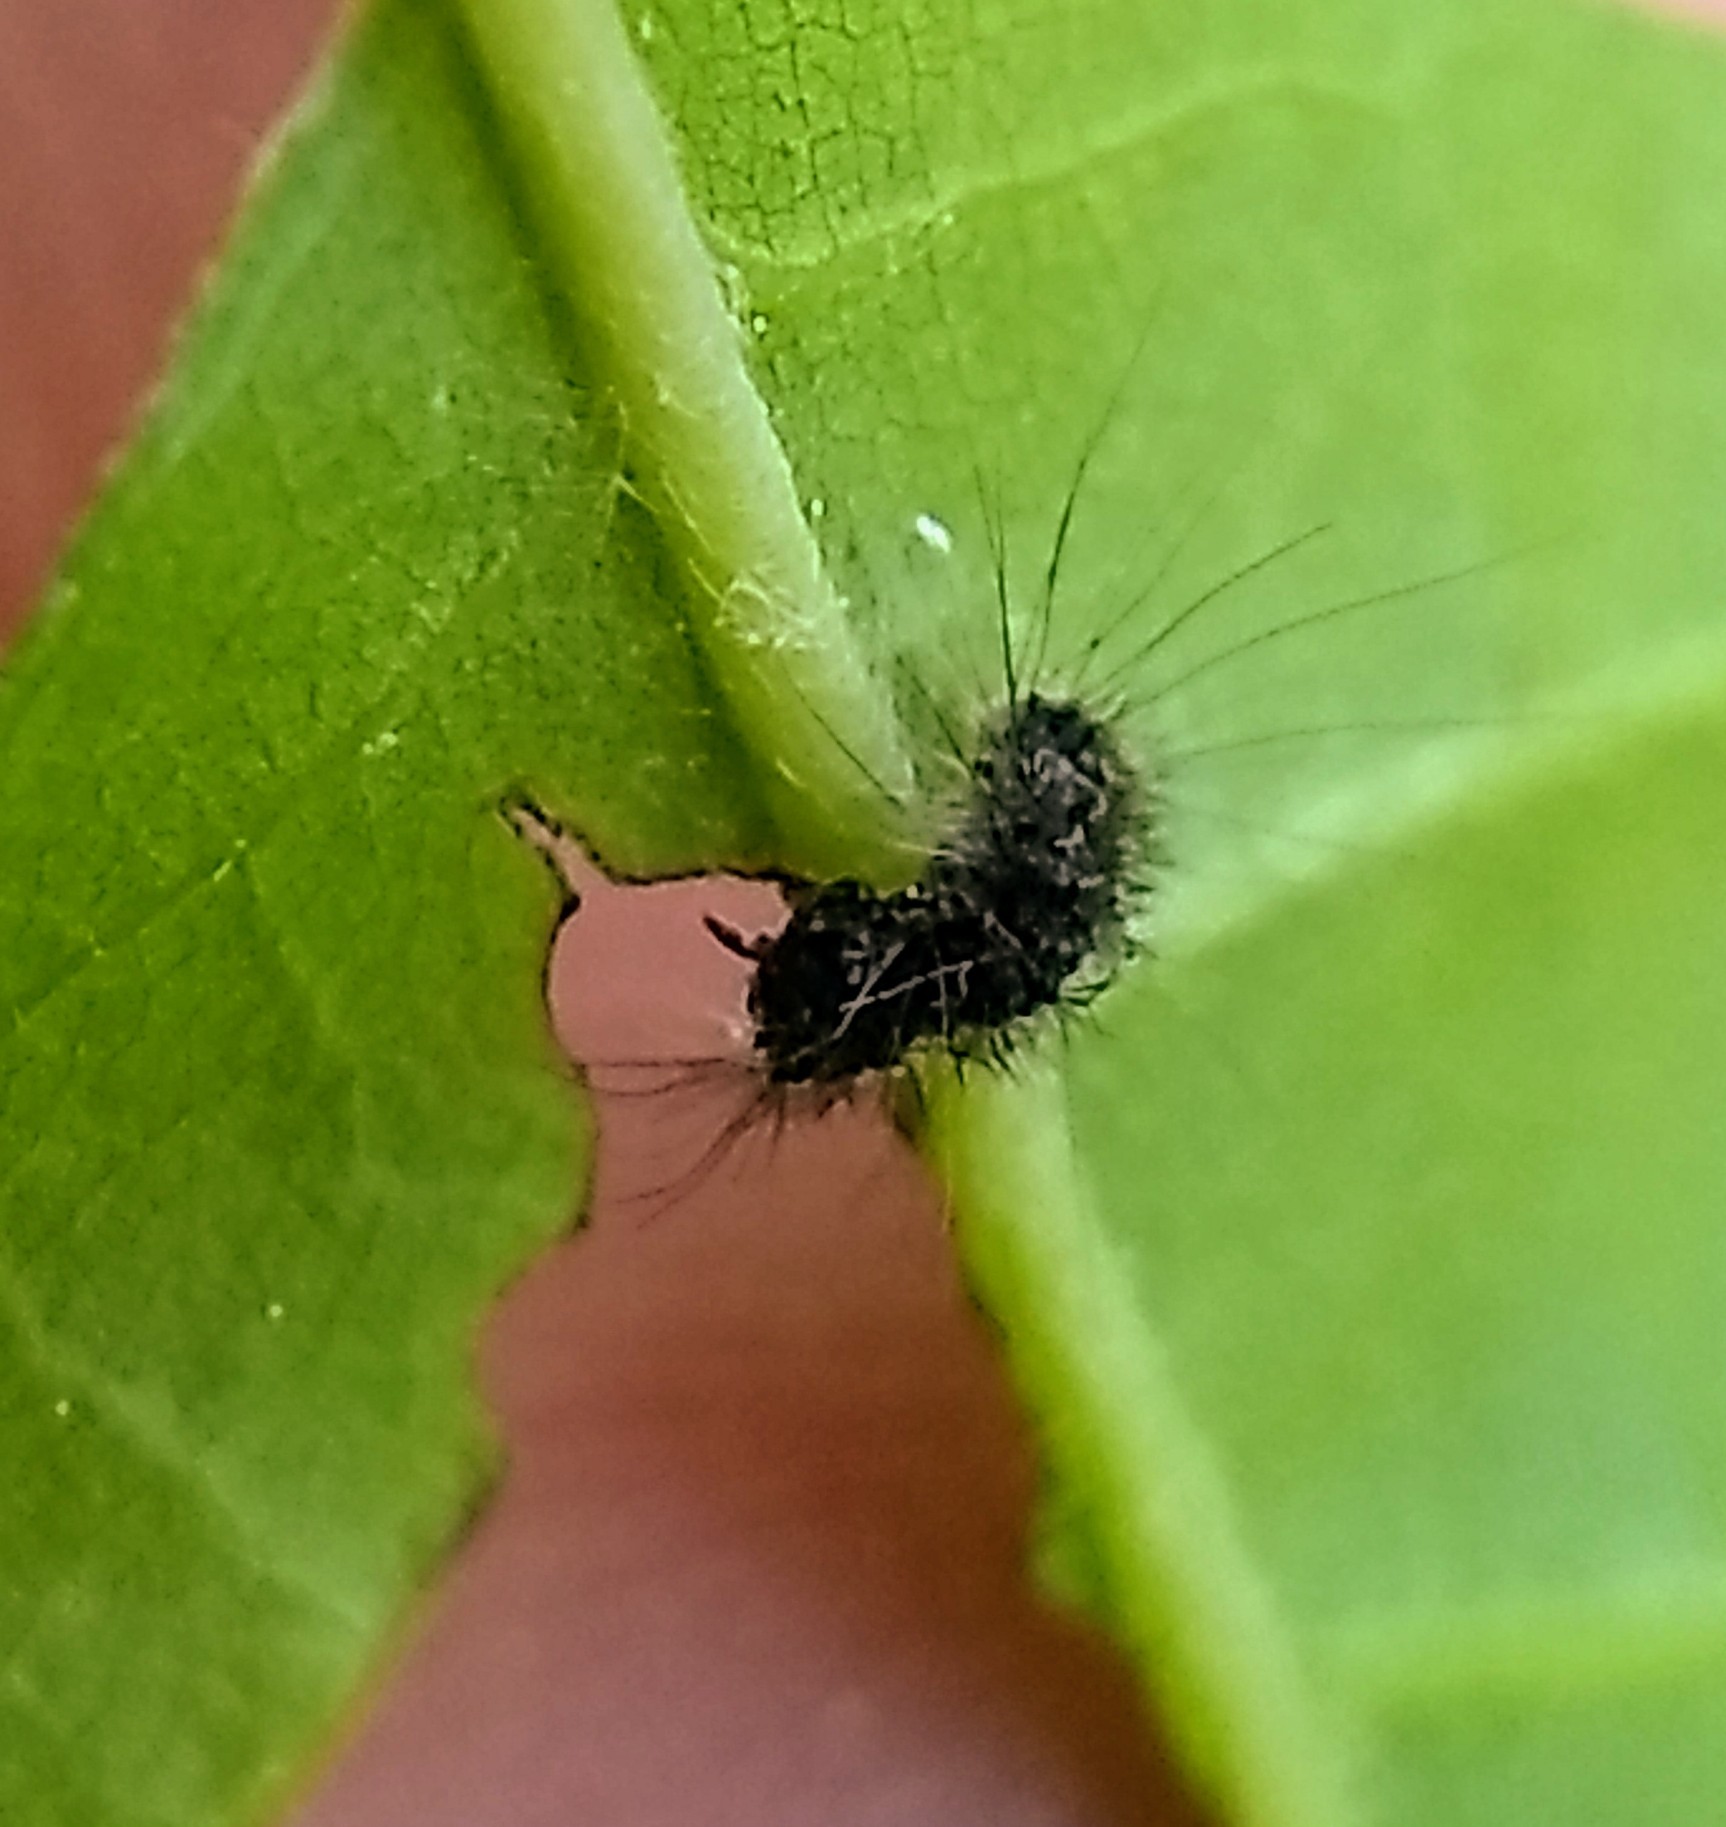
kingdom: Animalia
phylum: Arthropoda
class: Insecta
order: Lepidoptera
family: Erebidae
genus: Lymantria
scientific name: Lymantria dispar
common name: Gypsy moth
